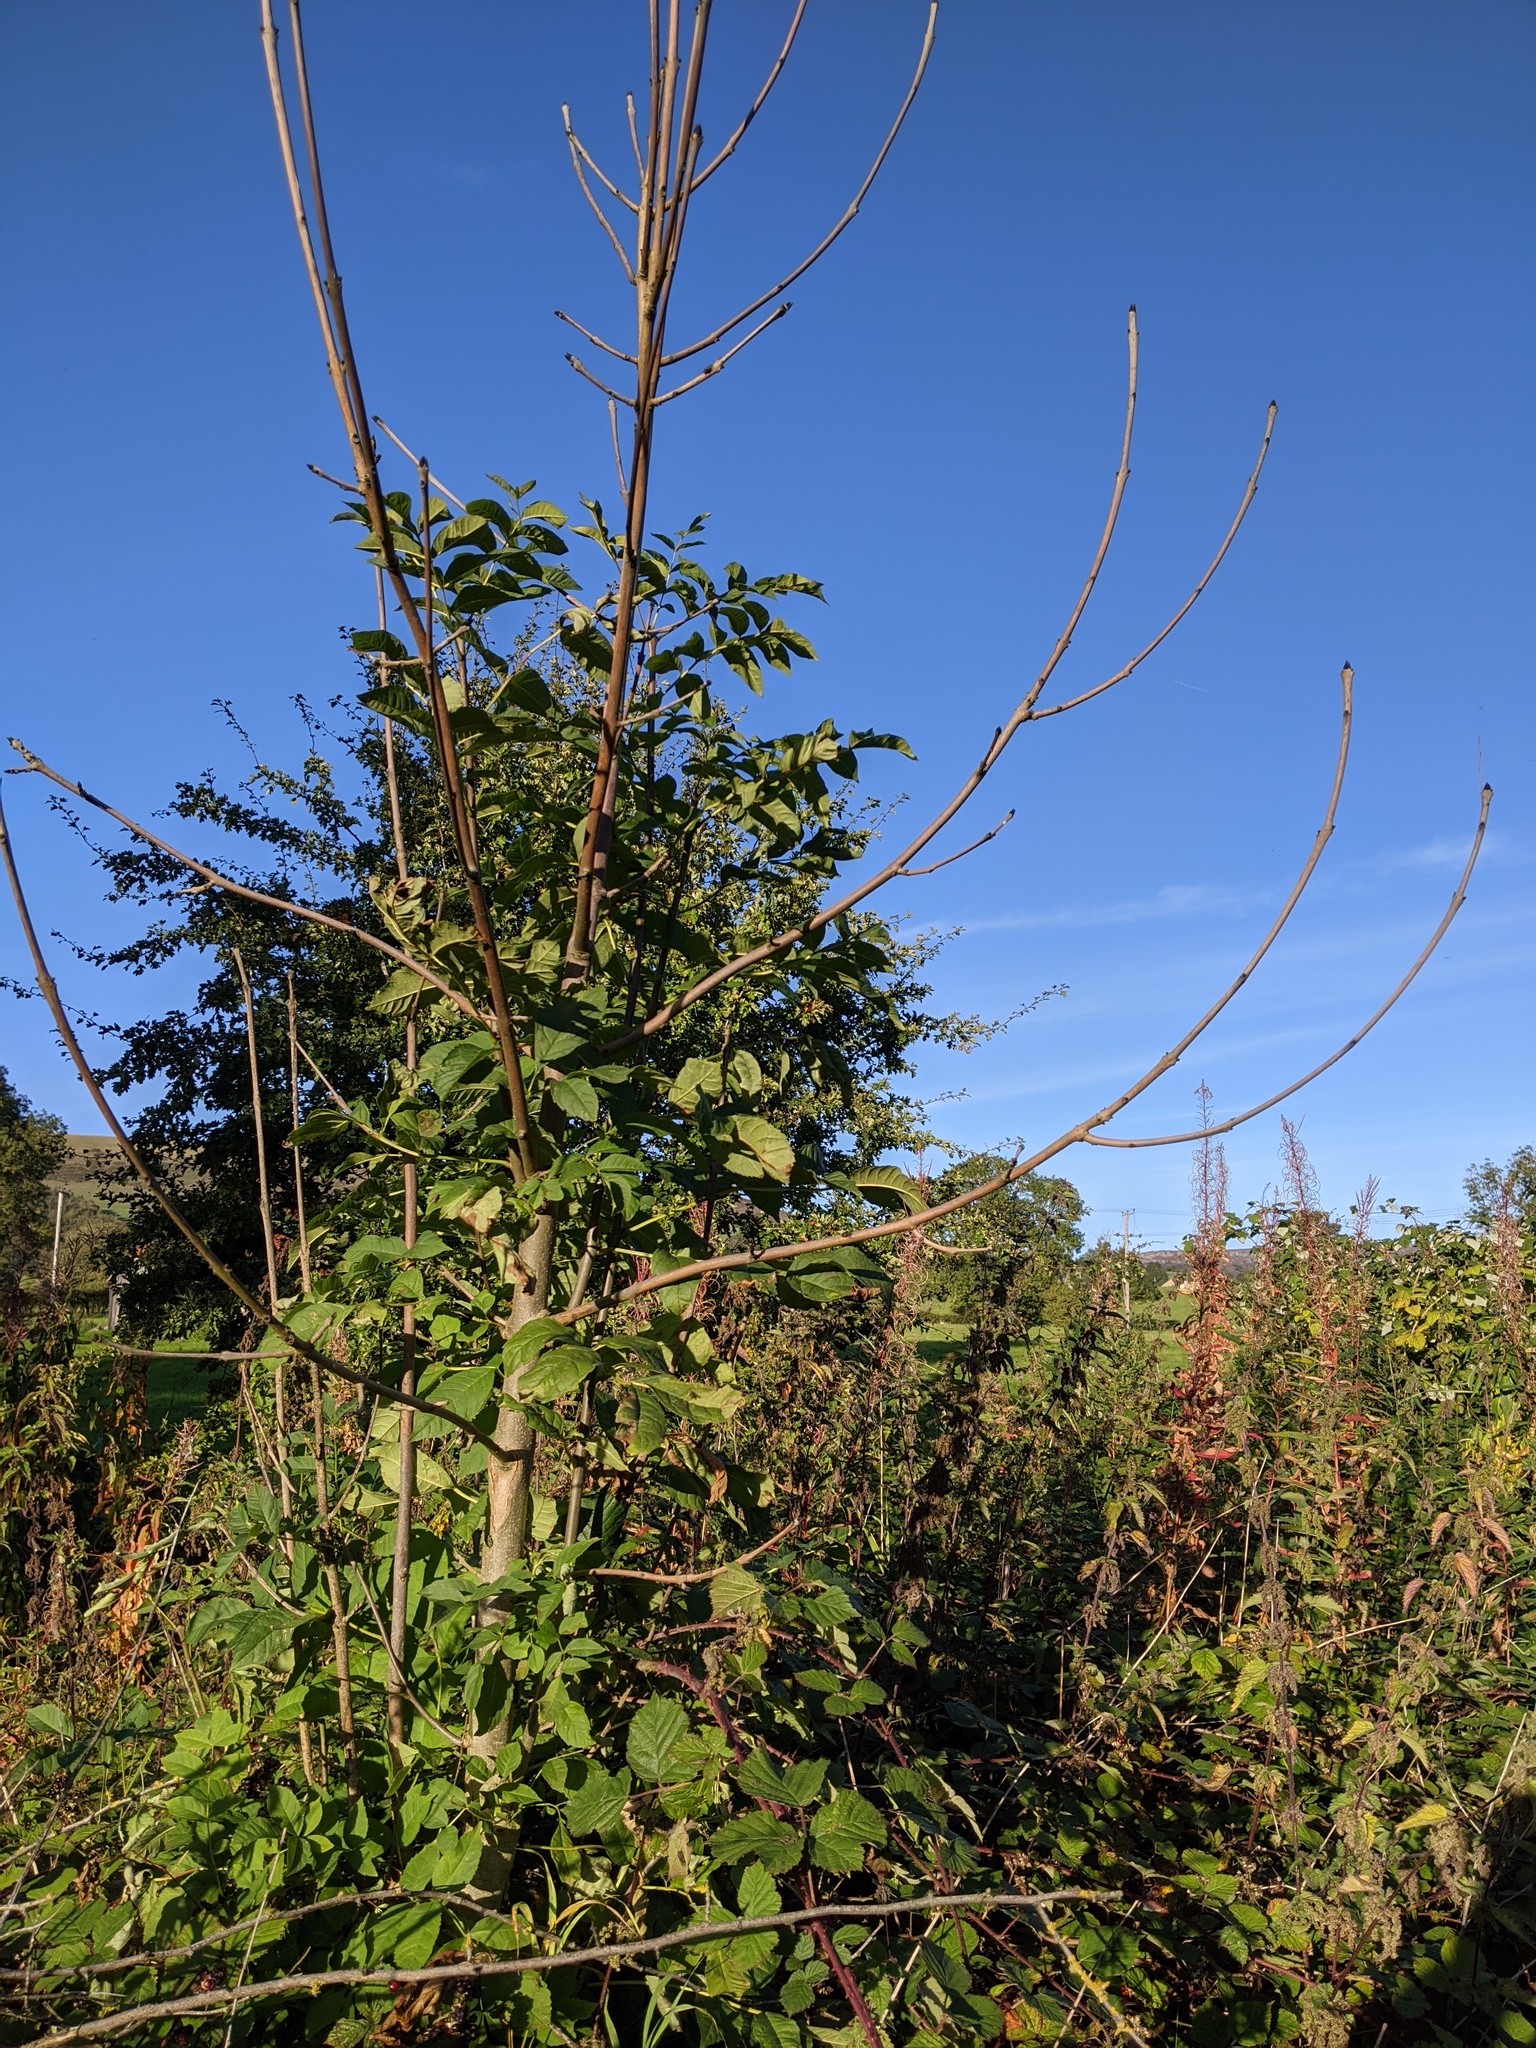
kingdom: Plantae
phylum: Tracheophyta
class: Magnoliopsida
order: Lamiales
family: Oleaceae
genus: Fraxinus
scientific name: Fraxinus excelsior
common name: European ash
